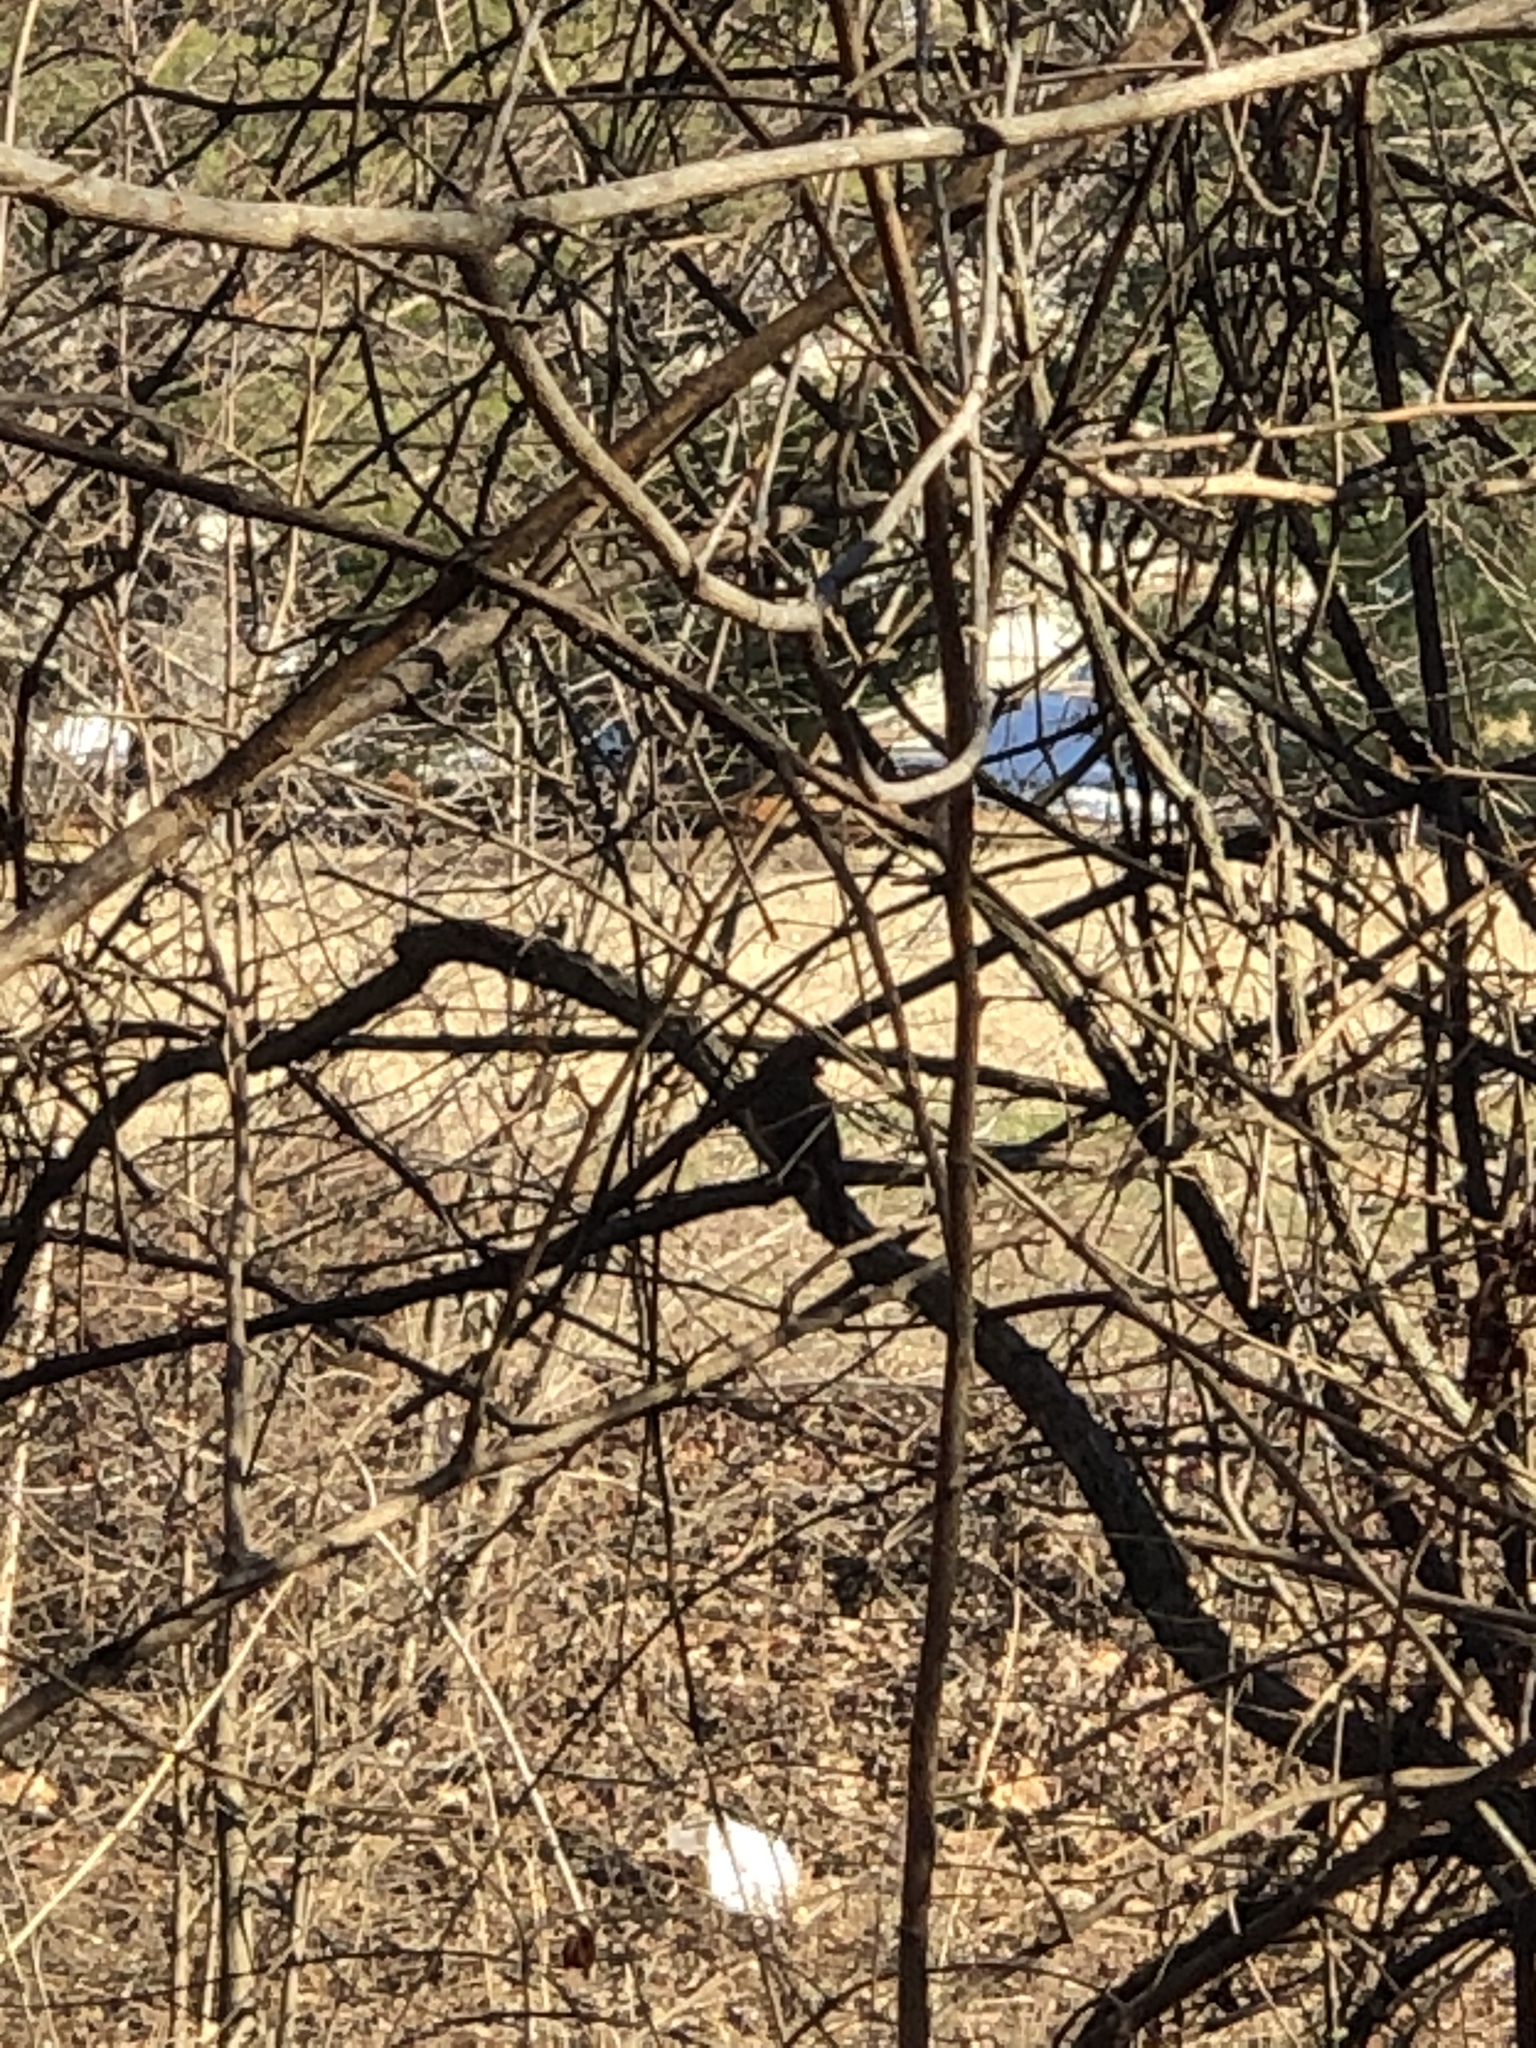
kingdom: Animalia
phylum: Chordata
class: Aves
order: Passeriformes
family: Cardinalidae
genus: Cardinalis
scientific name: Cardinalis cardinalis
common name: Northern cardinal
